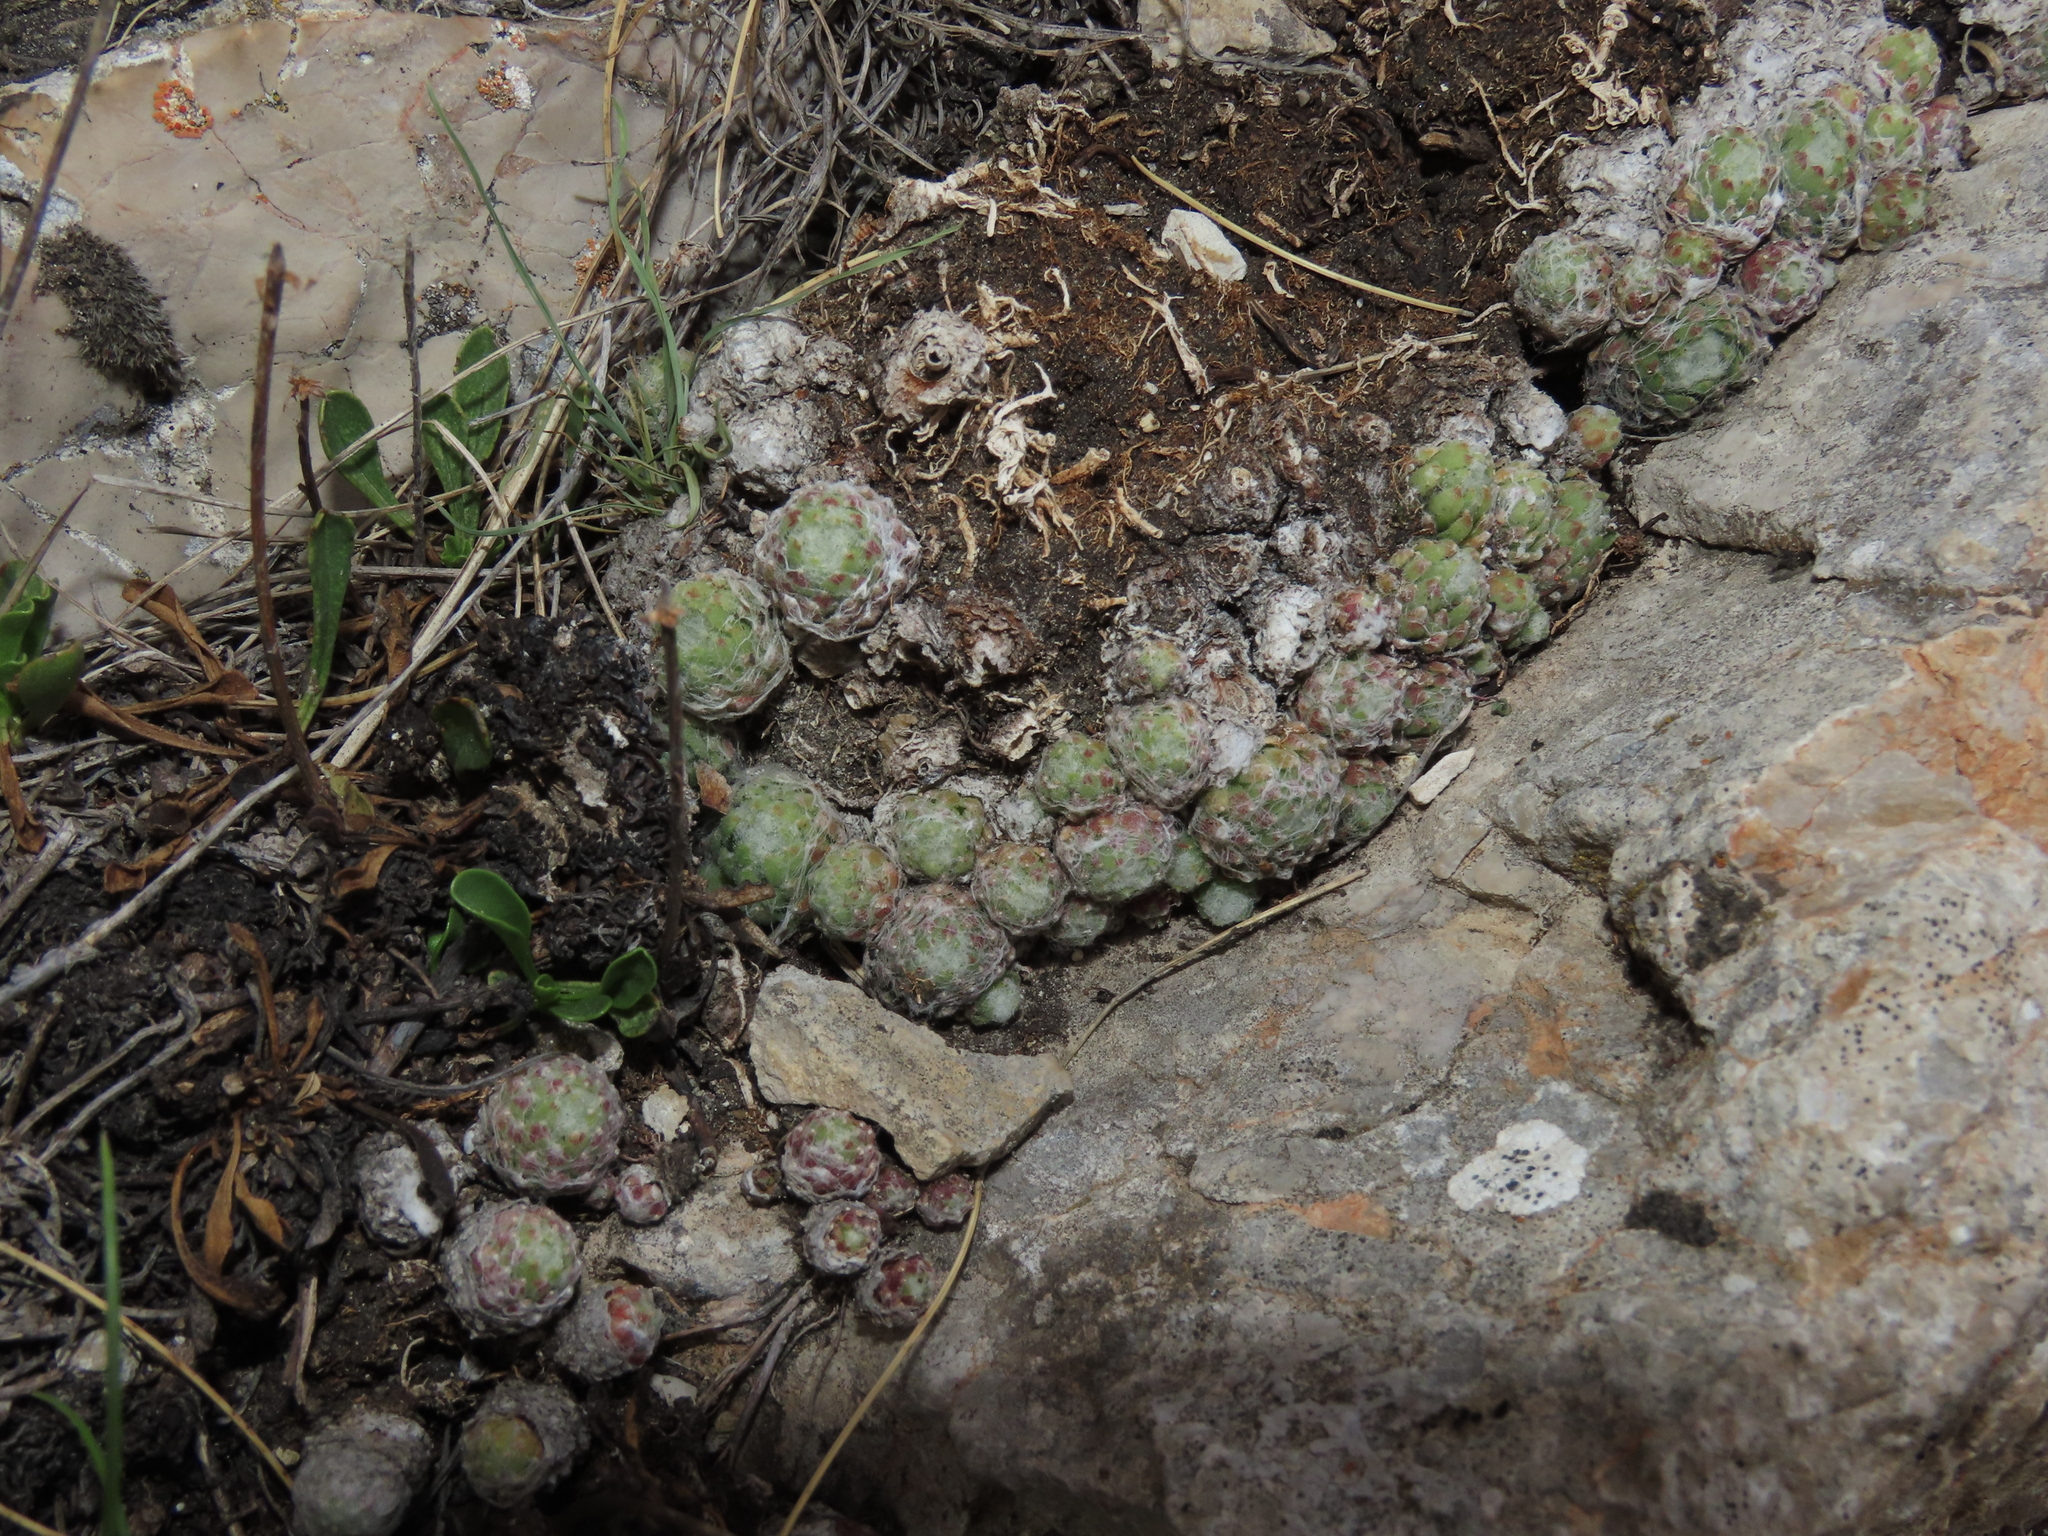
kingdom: Plantae
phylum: Tracheophyta
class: Magnoliopsida
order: Saxifragales
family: Crassulaceae
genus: Sempervivum
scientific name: Sempervivum arachnoideum
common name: Cobweb house-leek
